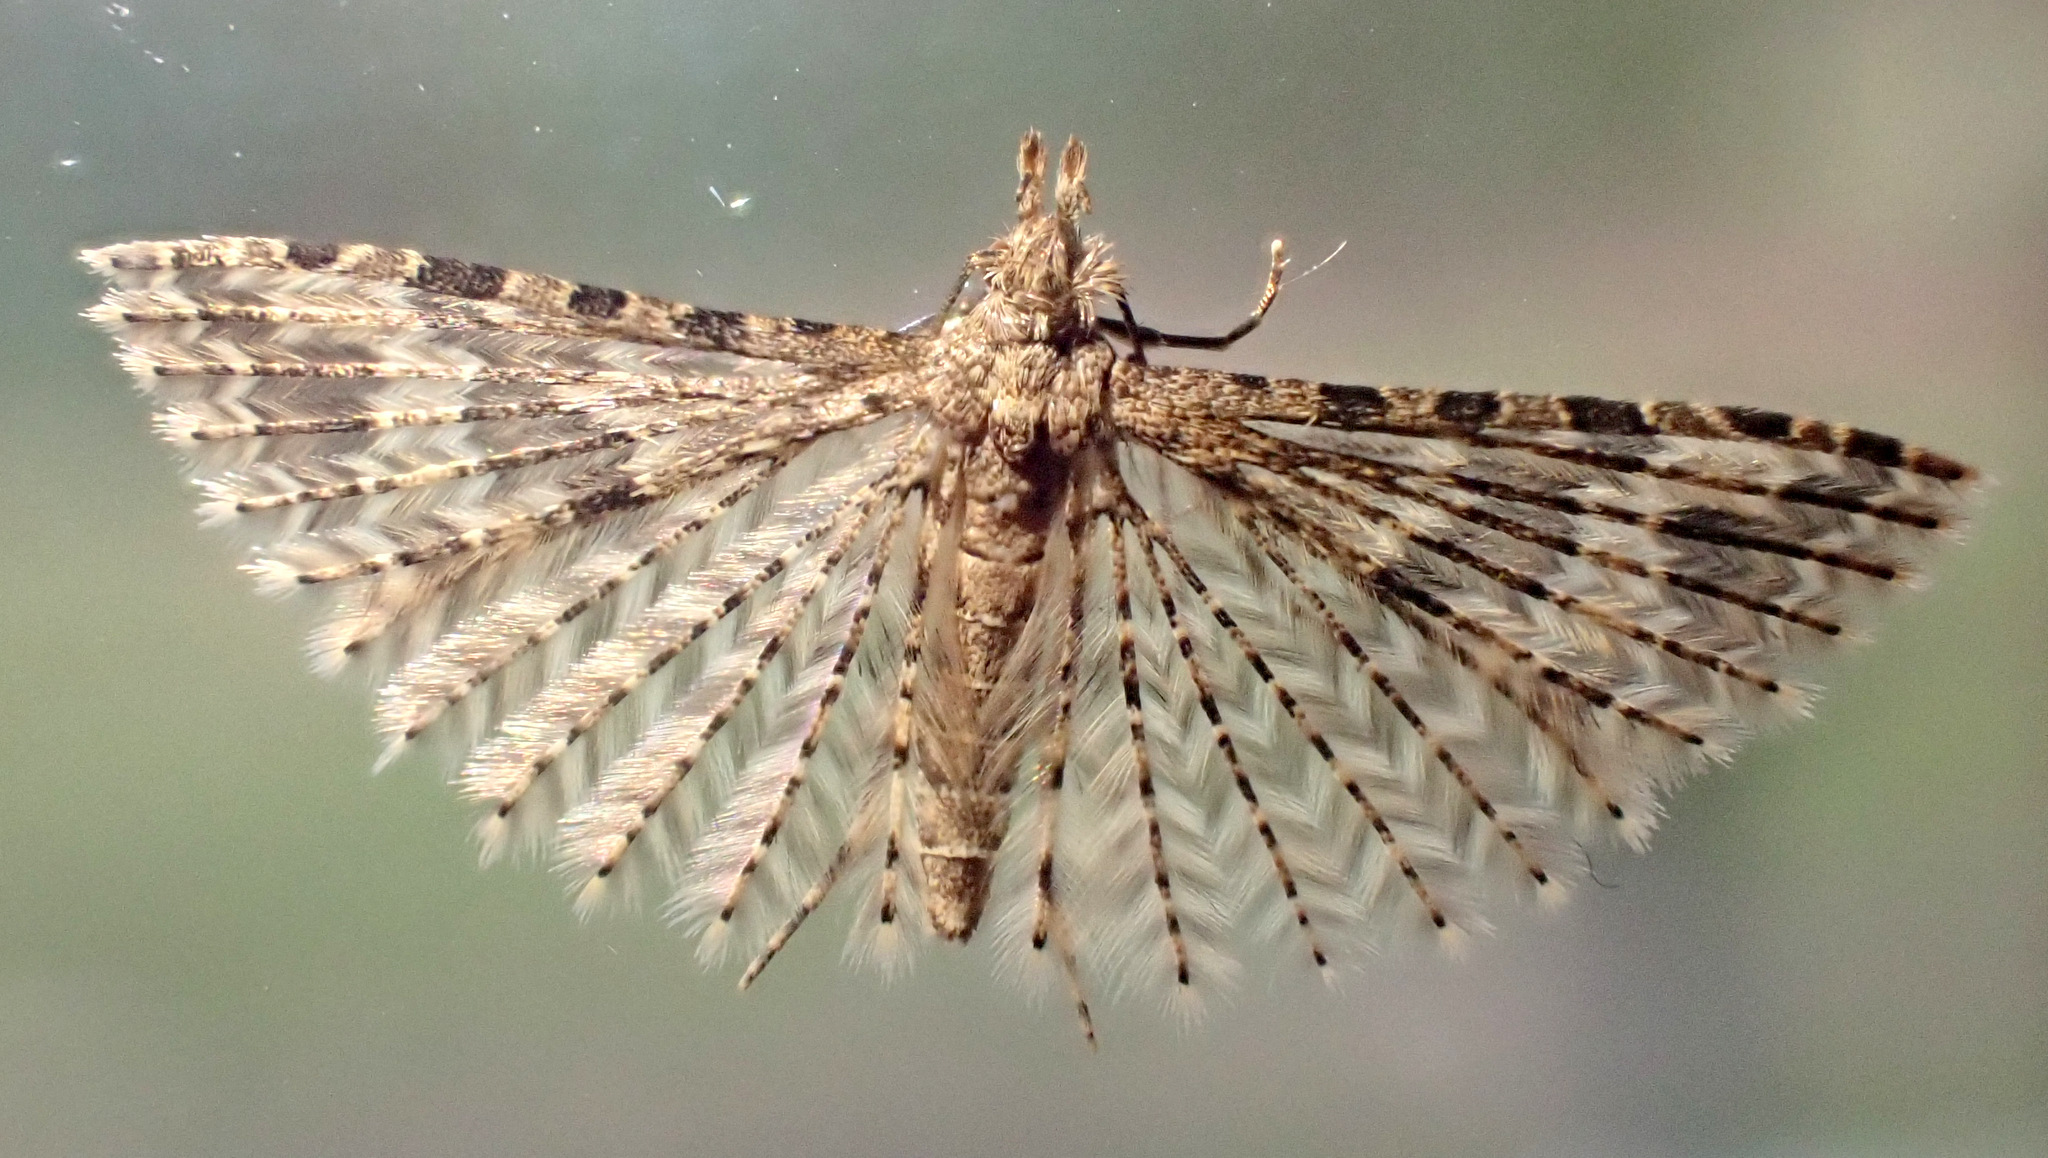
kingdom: Animalia
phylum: Arthropoda
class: Insecta
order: Lepidoptera
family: Alucitidae
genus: Alucita
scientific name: Alucita hexadactyla
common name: Twenty-plume moth
